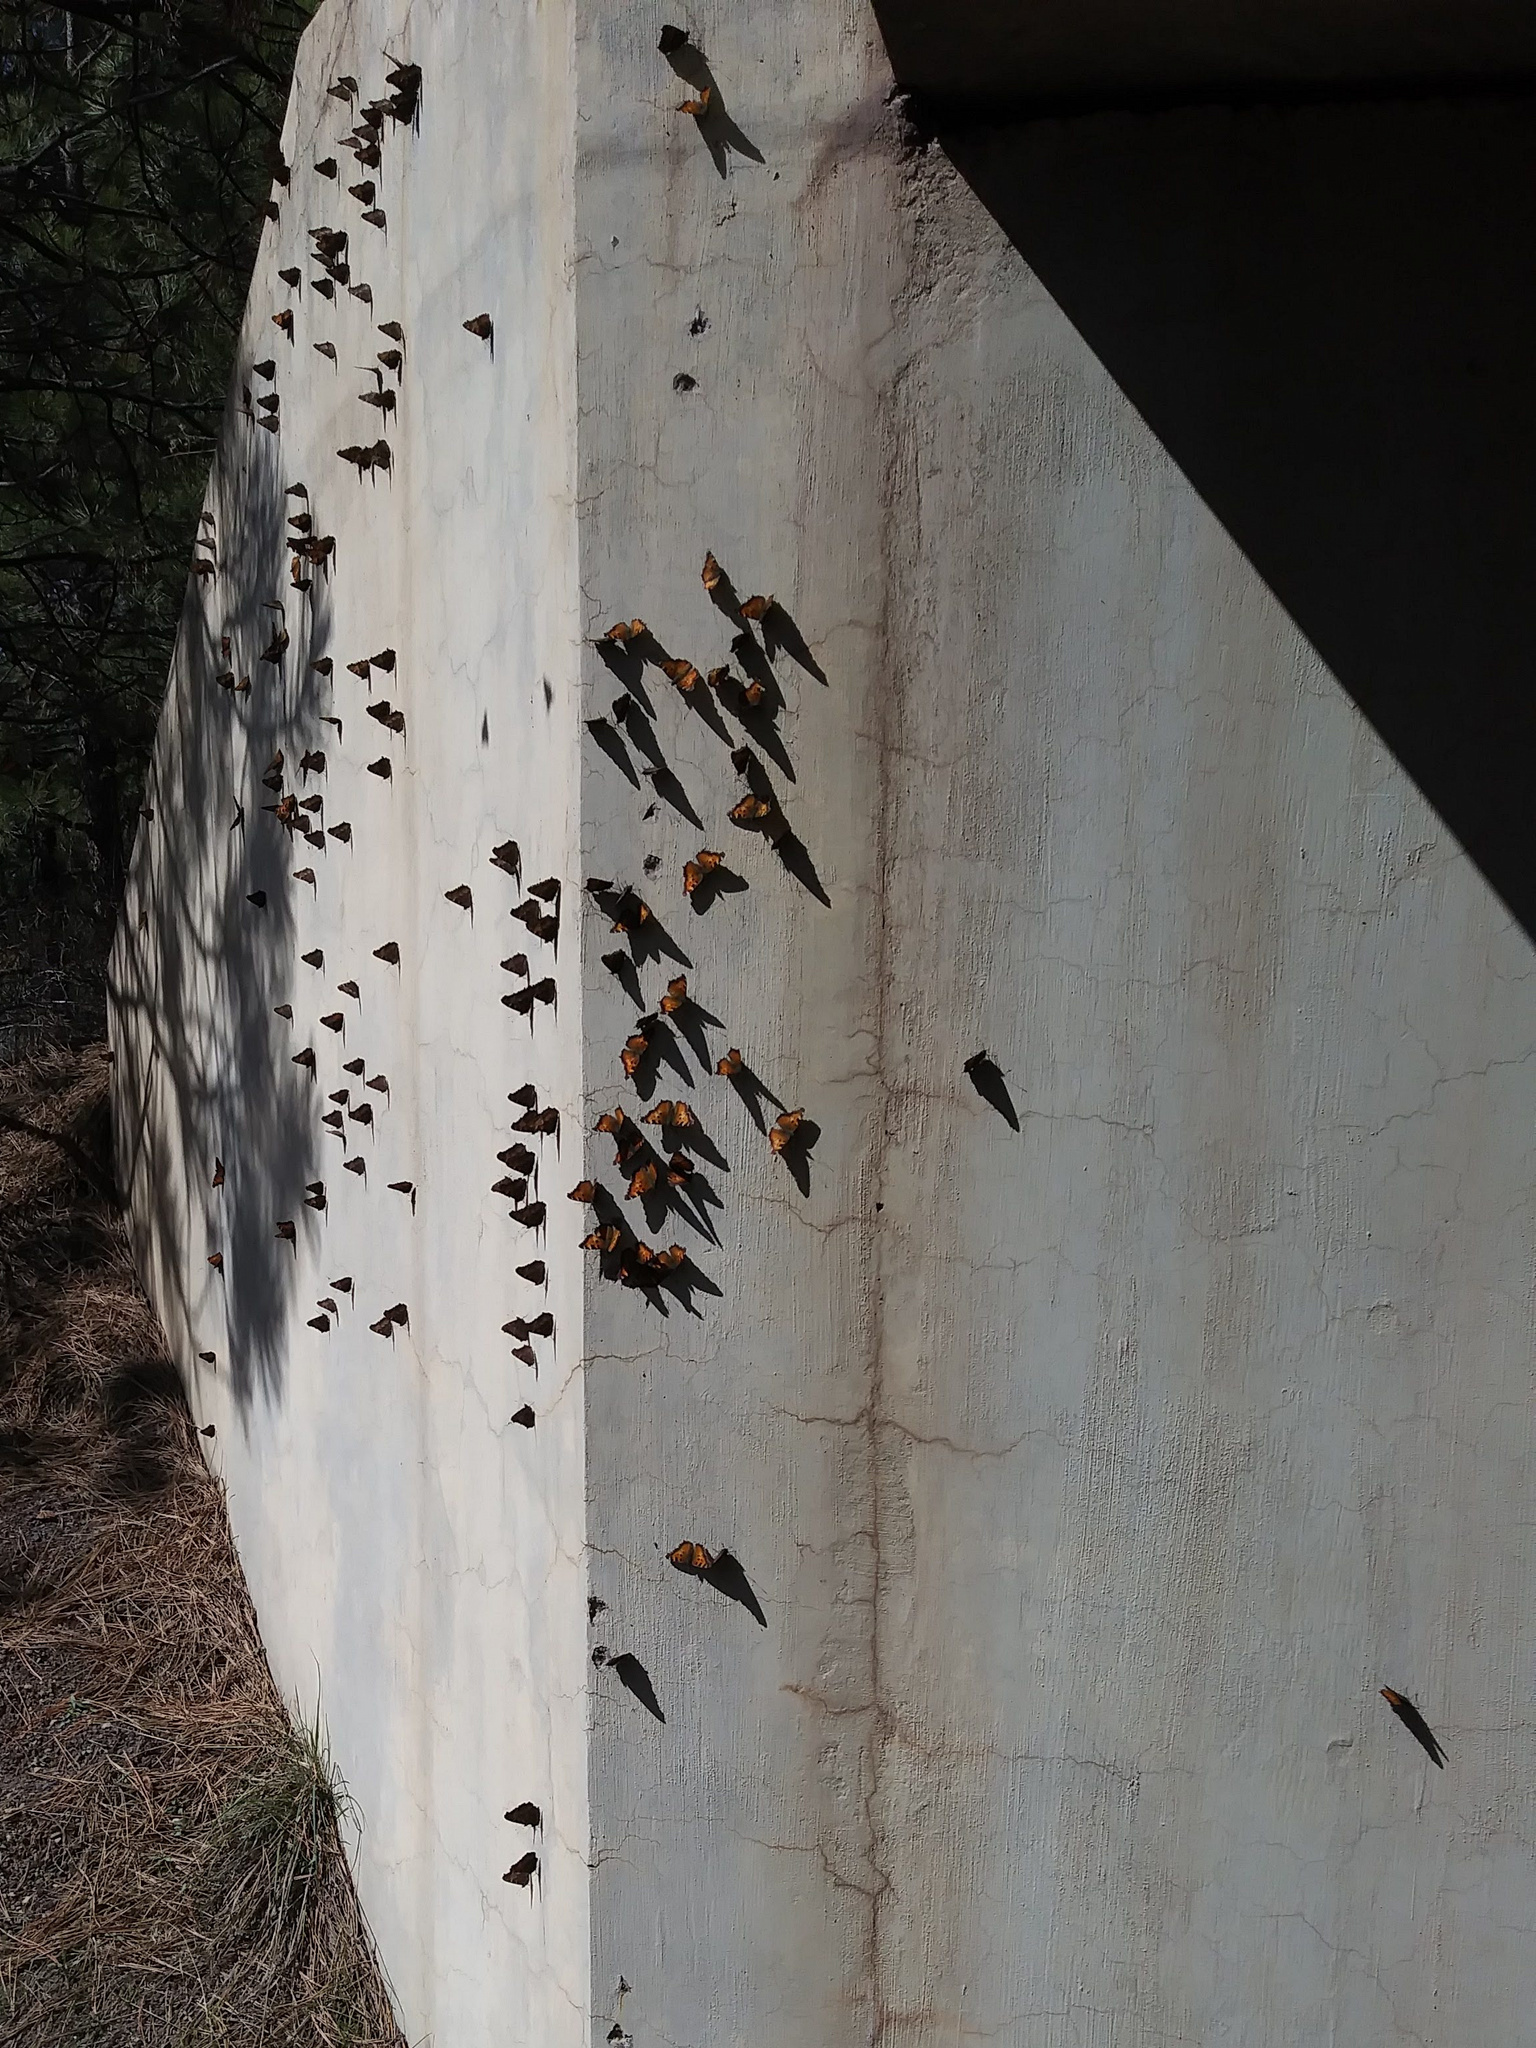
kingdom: Animalia
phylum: Arthropoda
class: Insecta
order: Lepidoptera
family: Nymphalidae
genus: Nymphalis
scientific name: Nymphalis californica
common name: California tortoiseshell
